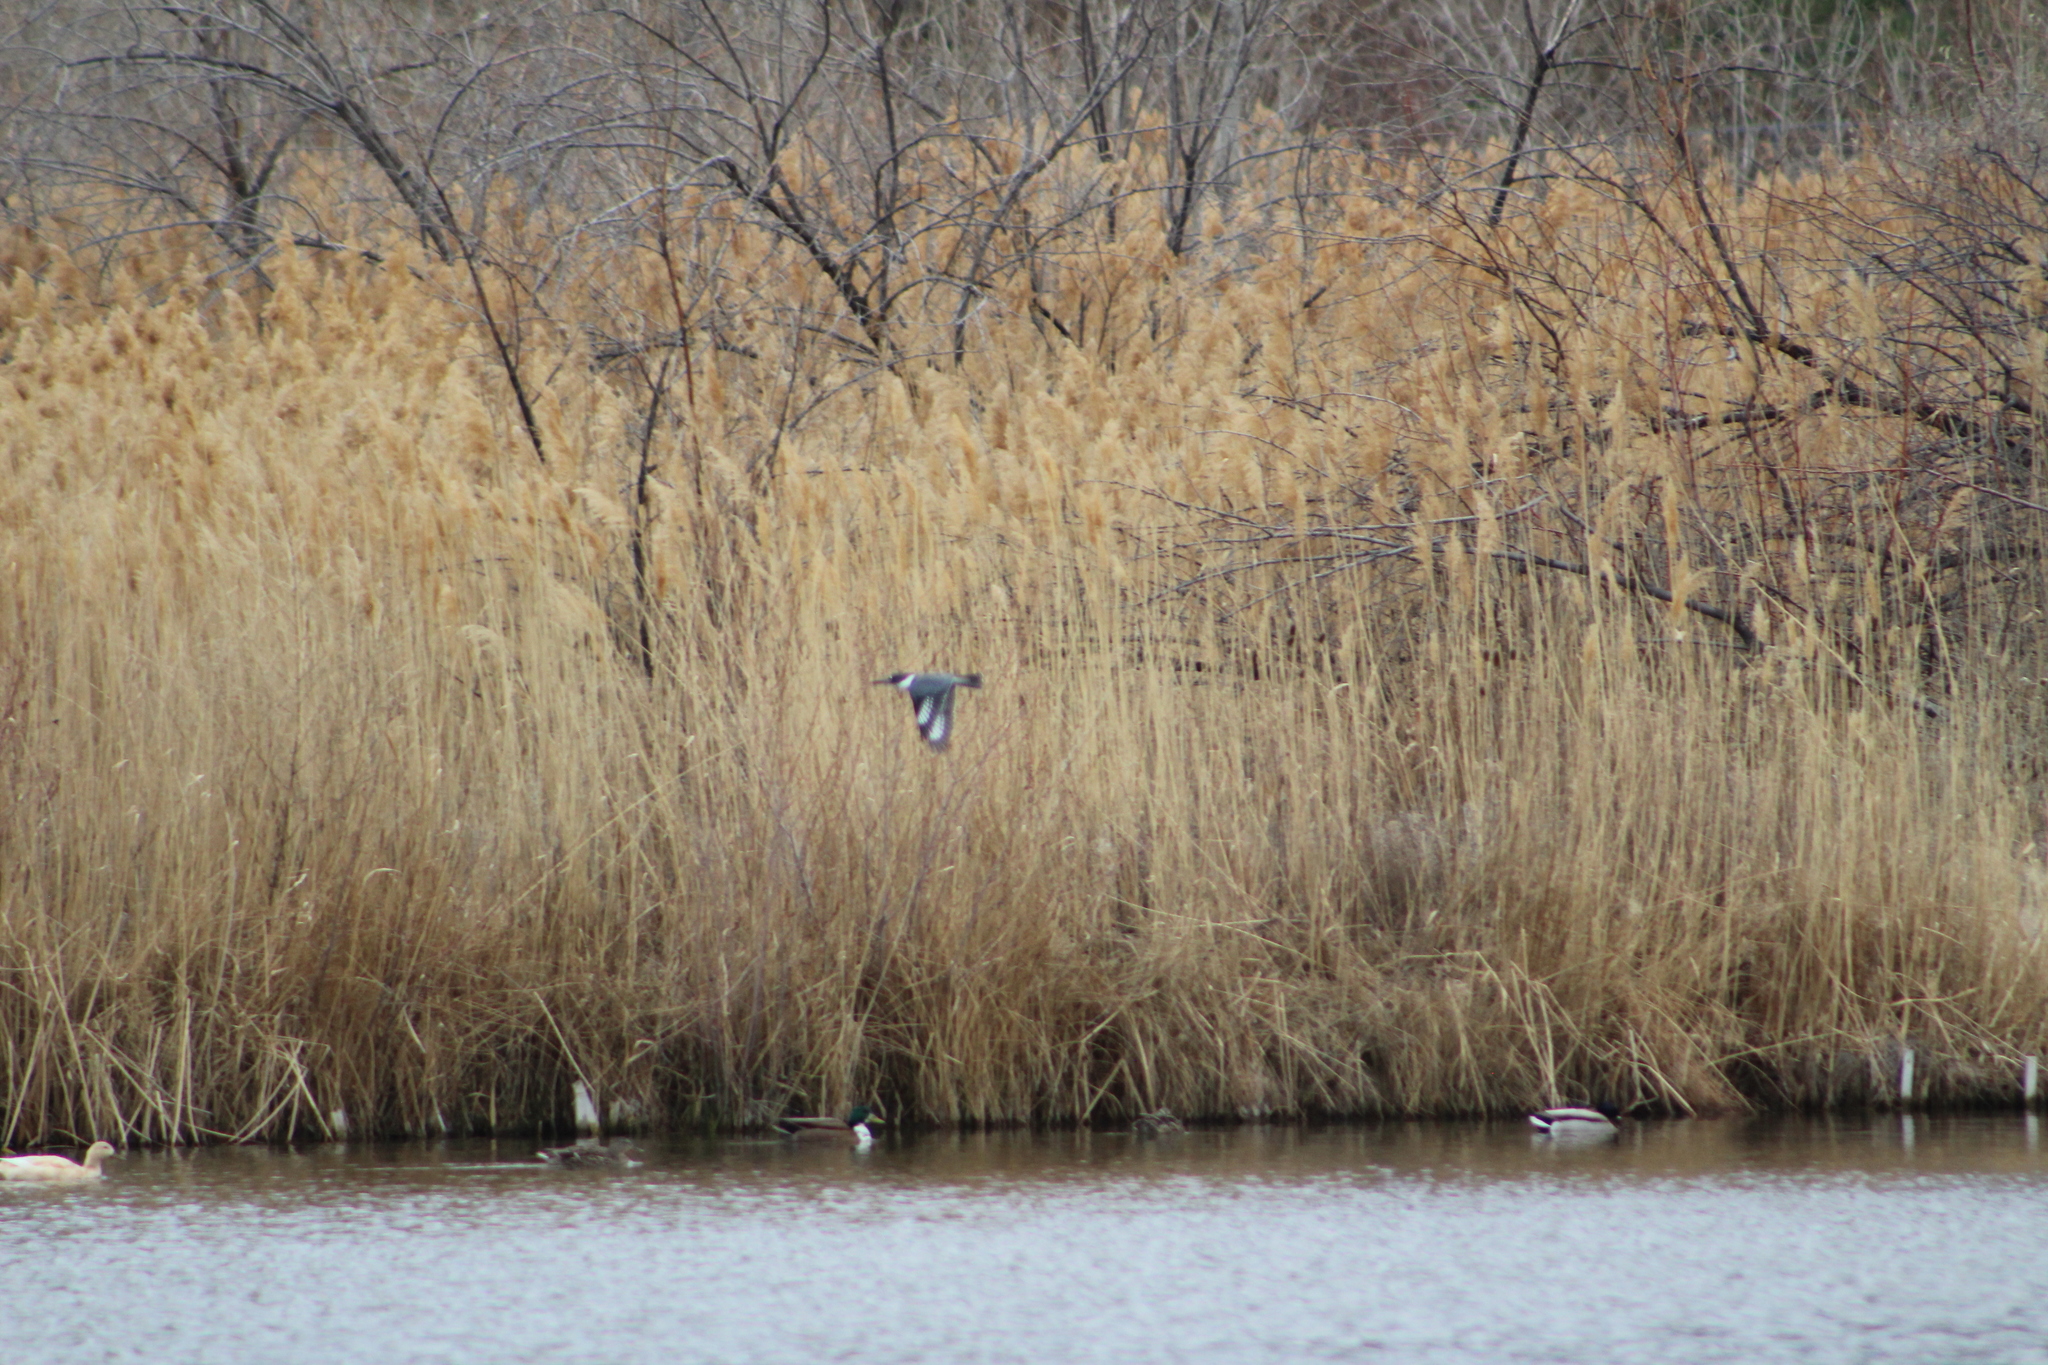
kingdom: Animalia
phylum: Chordata
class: Aves
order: Coraciiformes
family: Alcedinidae
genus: Megaceryle
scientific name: Megaceryle alcyon
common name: Belted kingfisher
